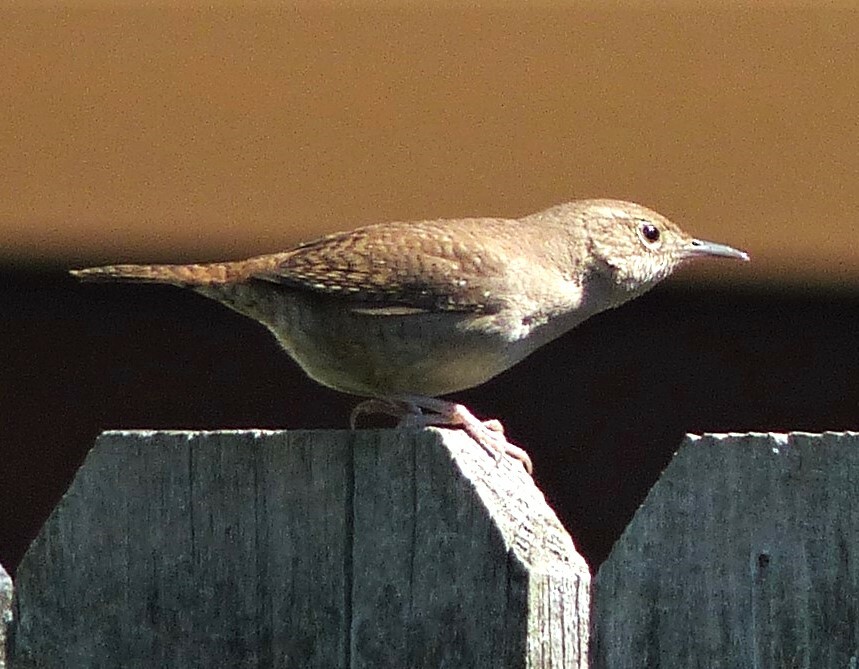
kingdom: Animalia
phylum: Chordata
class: Aves
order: Passeriformes
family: Troglodytidae
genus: Troglodytes
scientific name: Troglodytes aedon
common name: House wren
